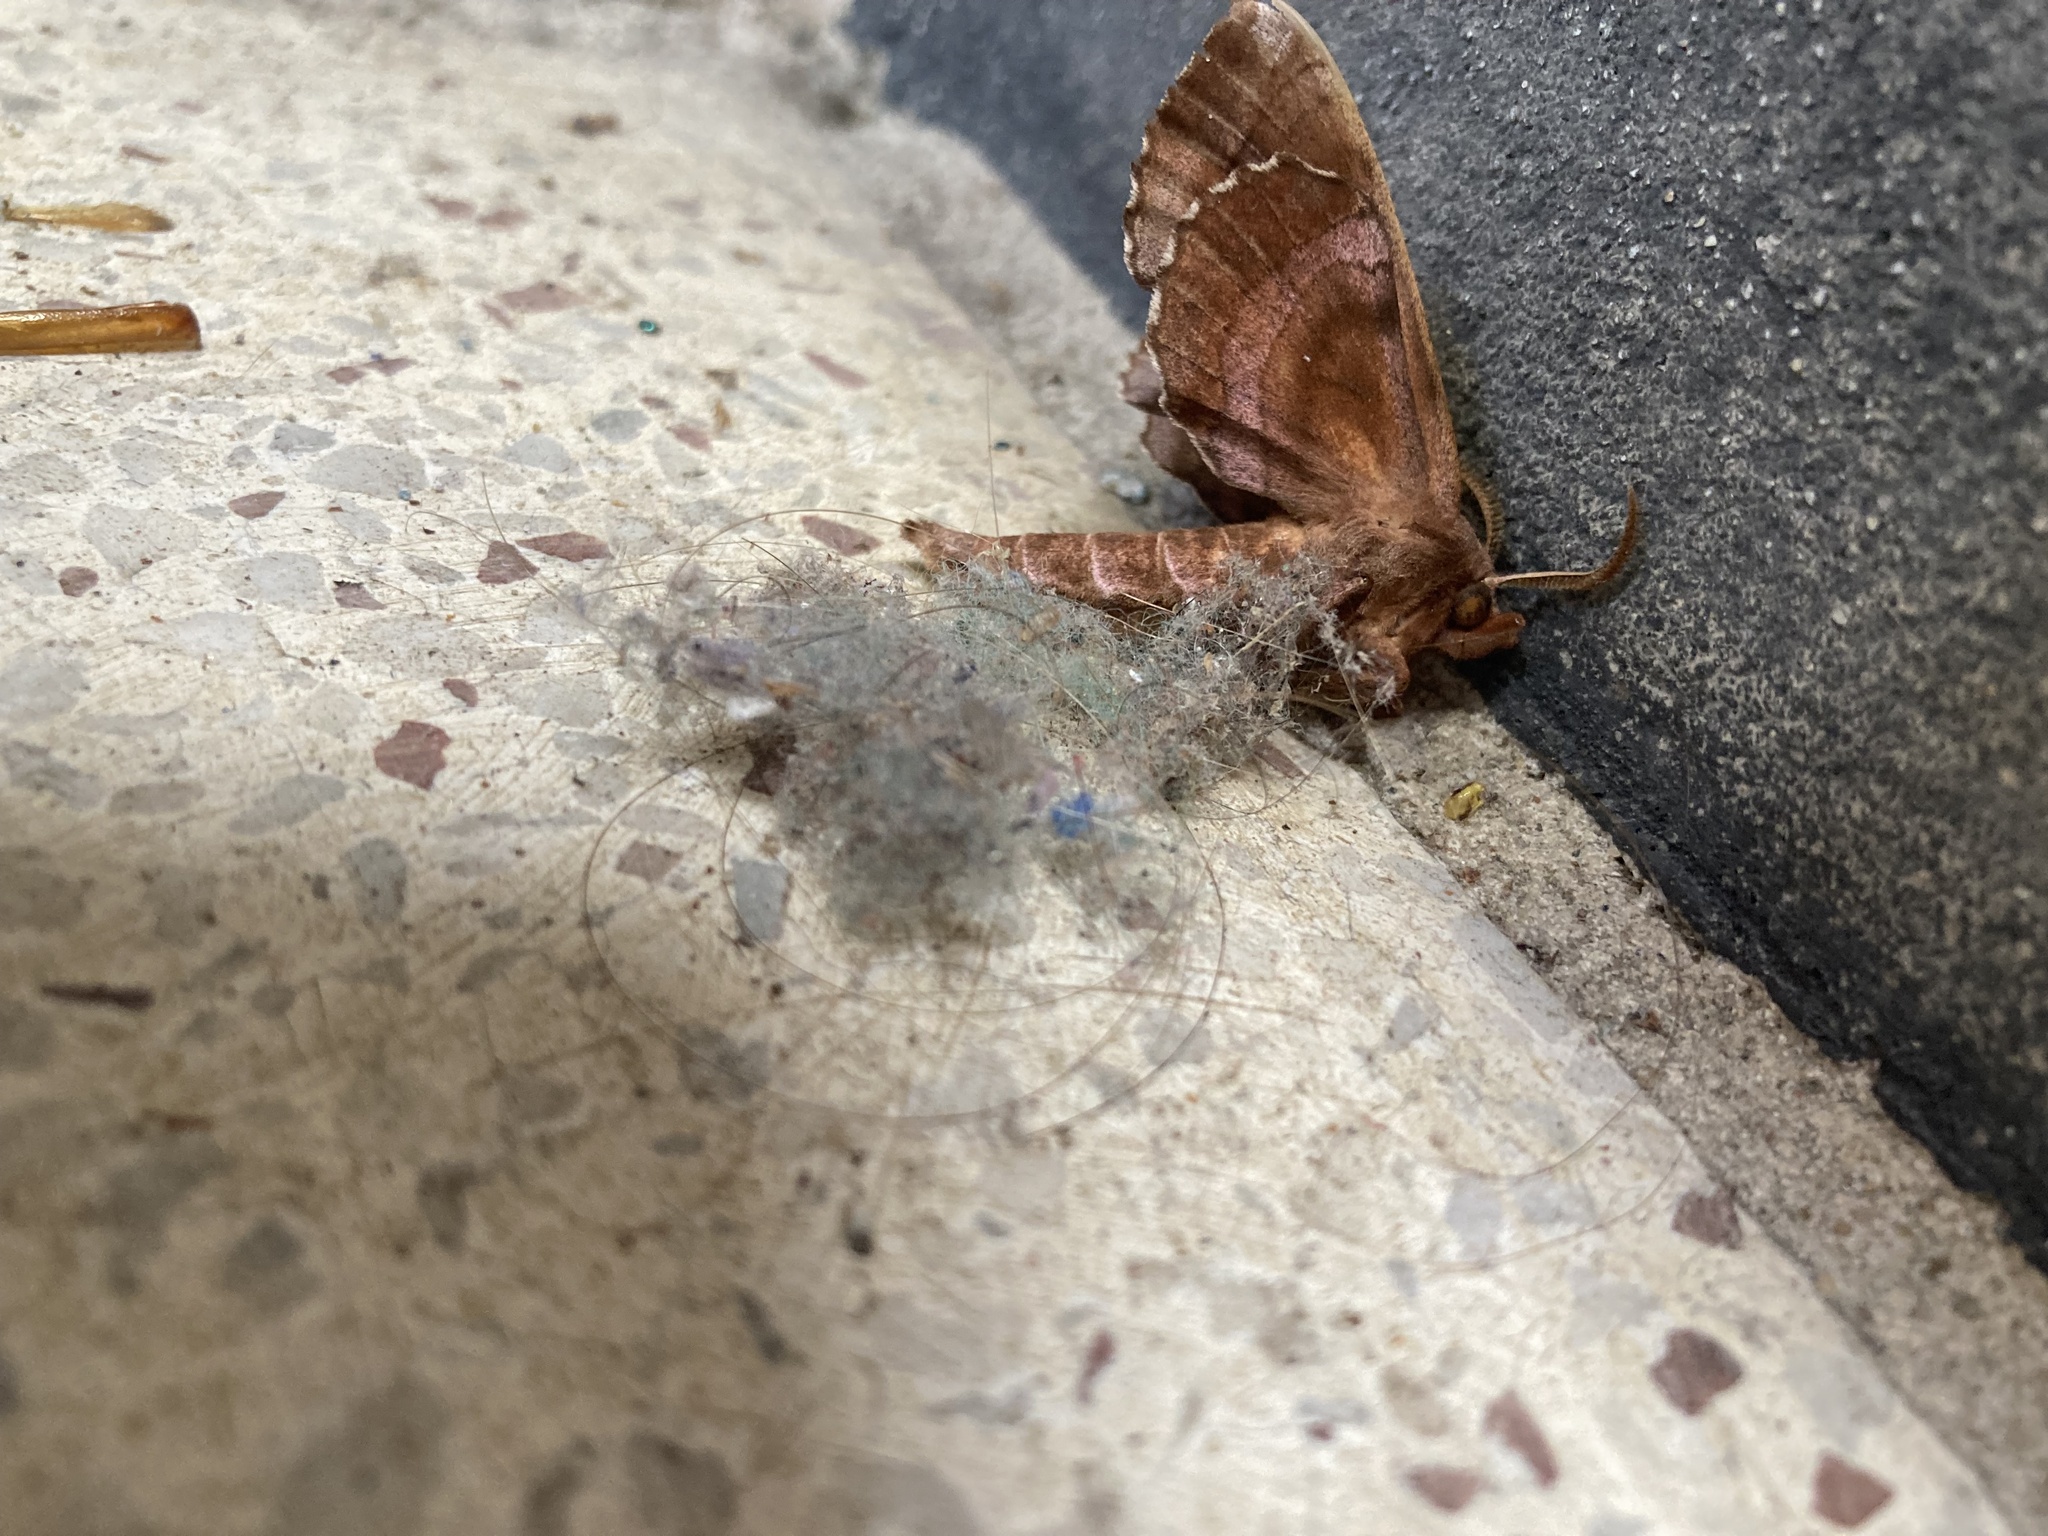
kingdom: Animalia
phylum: Arthropoda
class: Insecta
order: Lepidoptera
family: Sphingidae
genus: Amorpha
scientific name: Amorpha juglandis
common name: Walnut sphinx
